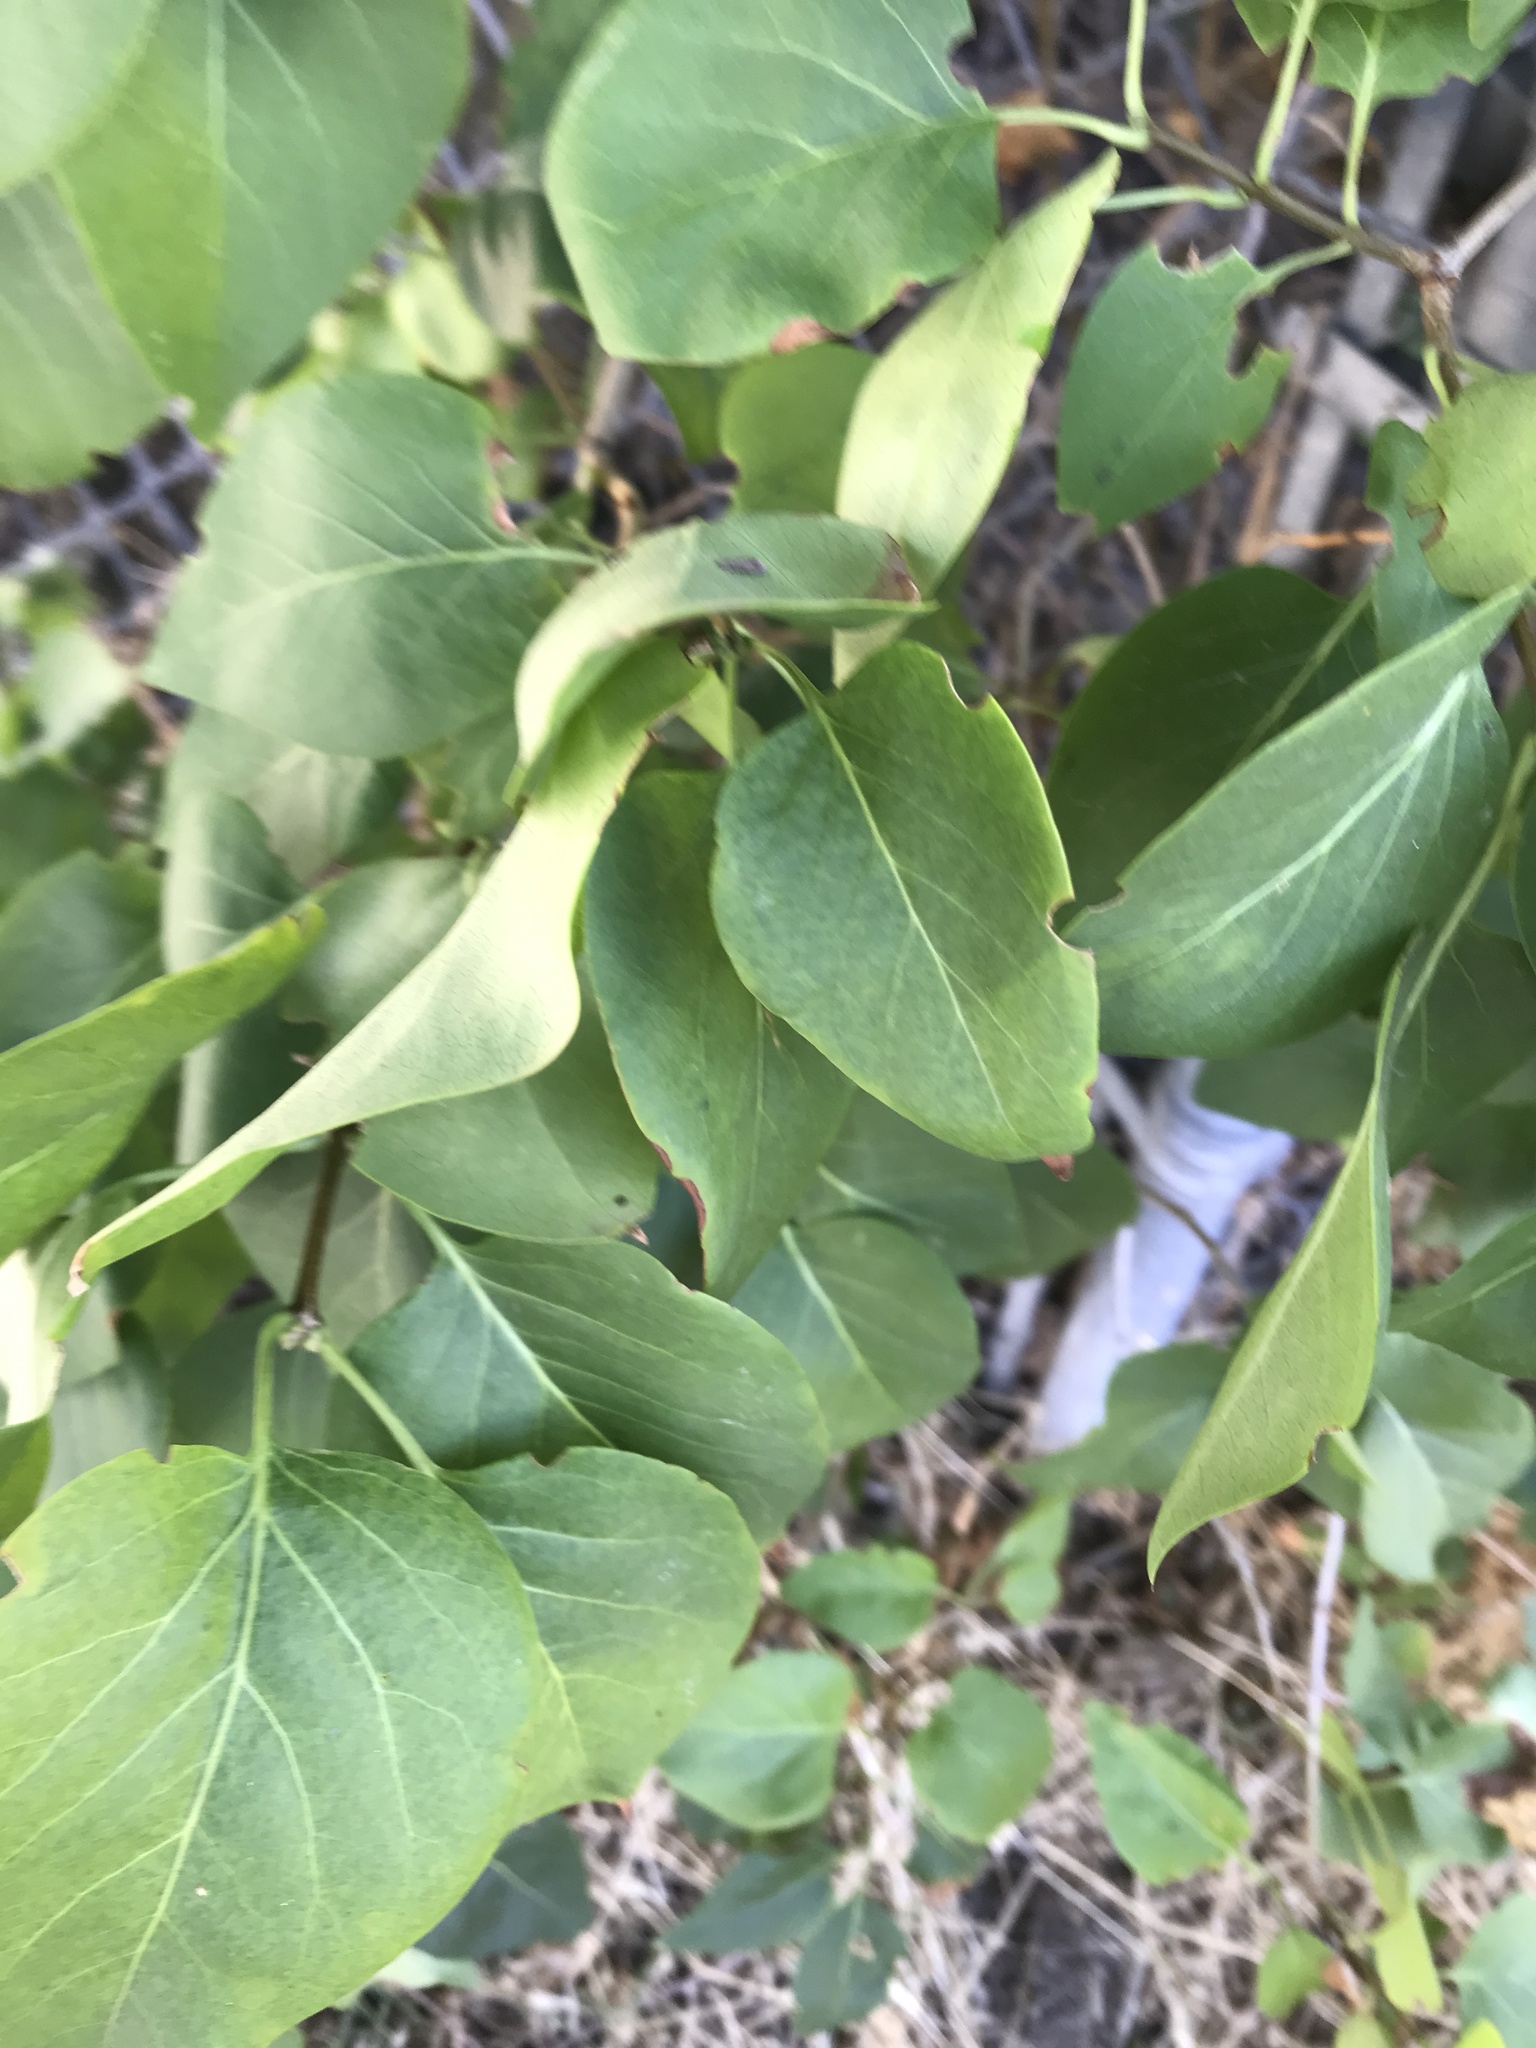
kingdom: Plantae
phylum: Tracheophyta
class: Magnoliopsida
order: Lamiales
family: Oleaceae
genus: Syringa
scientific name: Syringa vulgaris
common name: Common lilac
